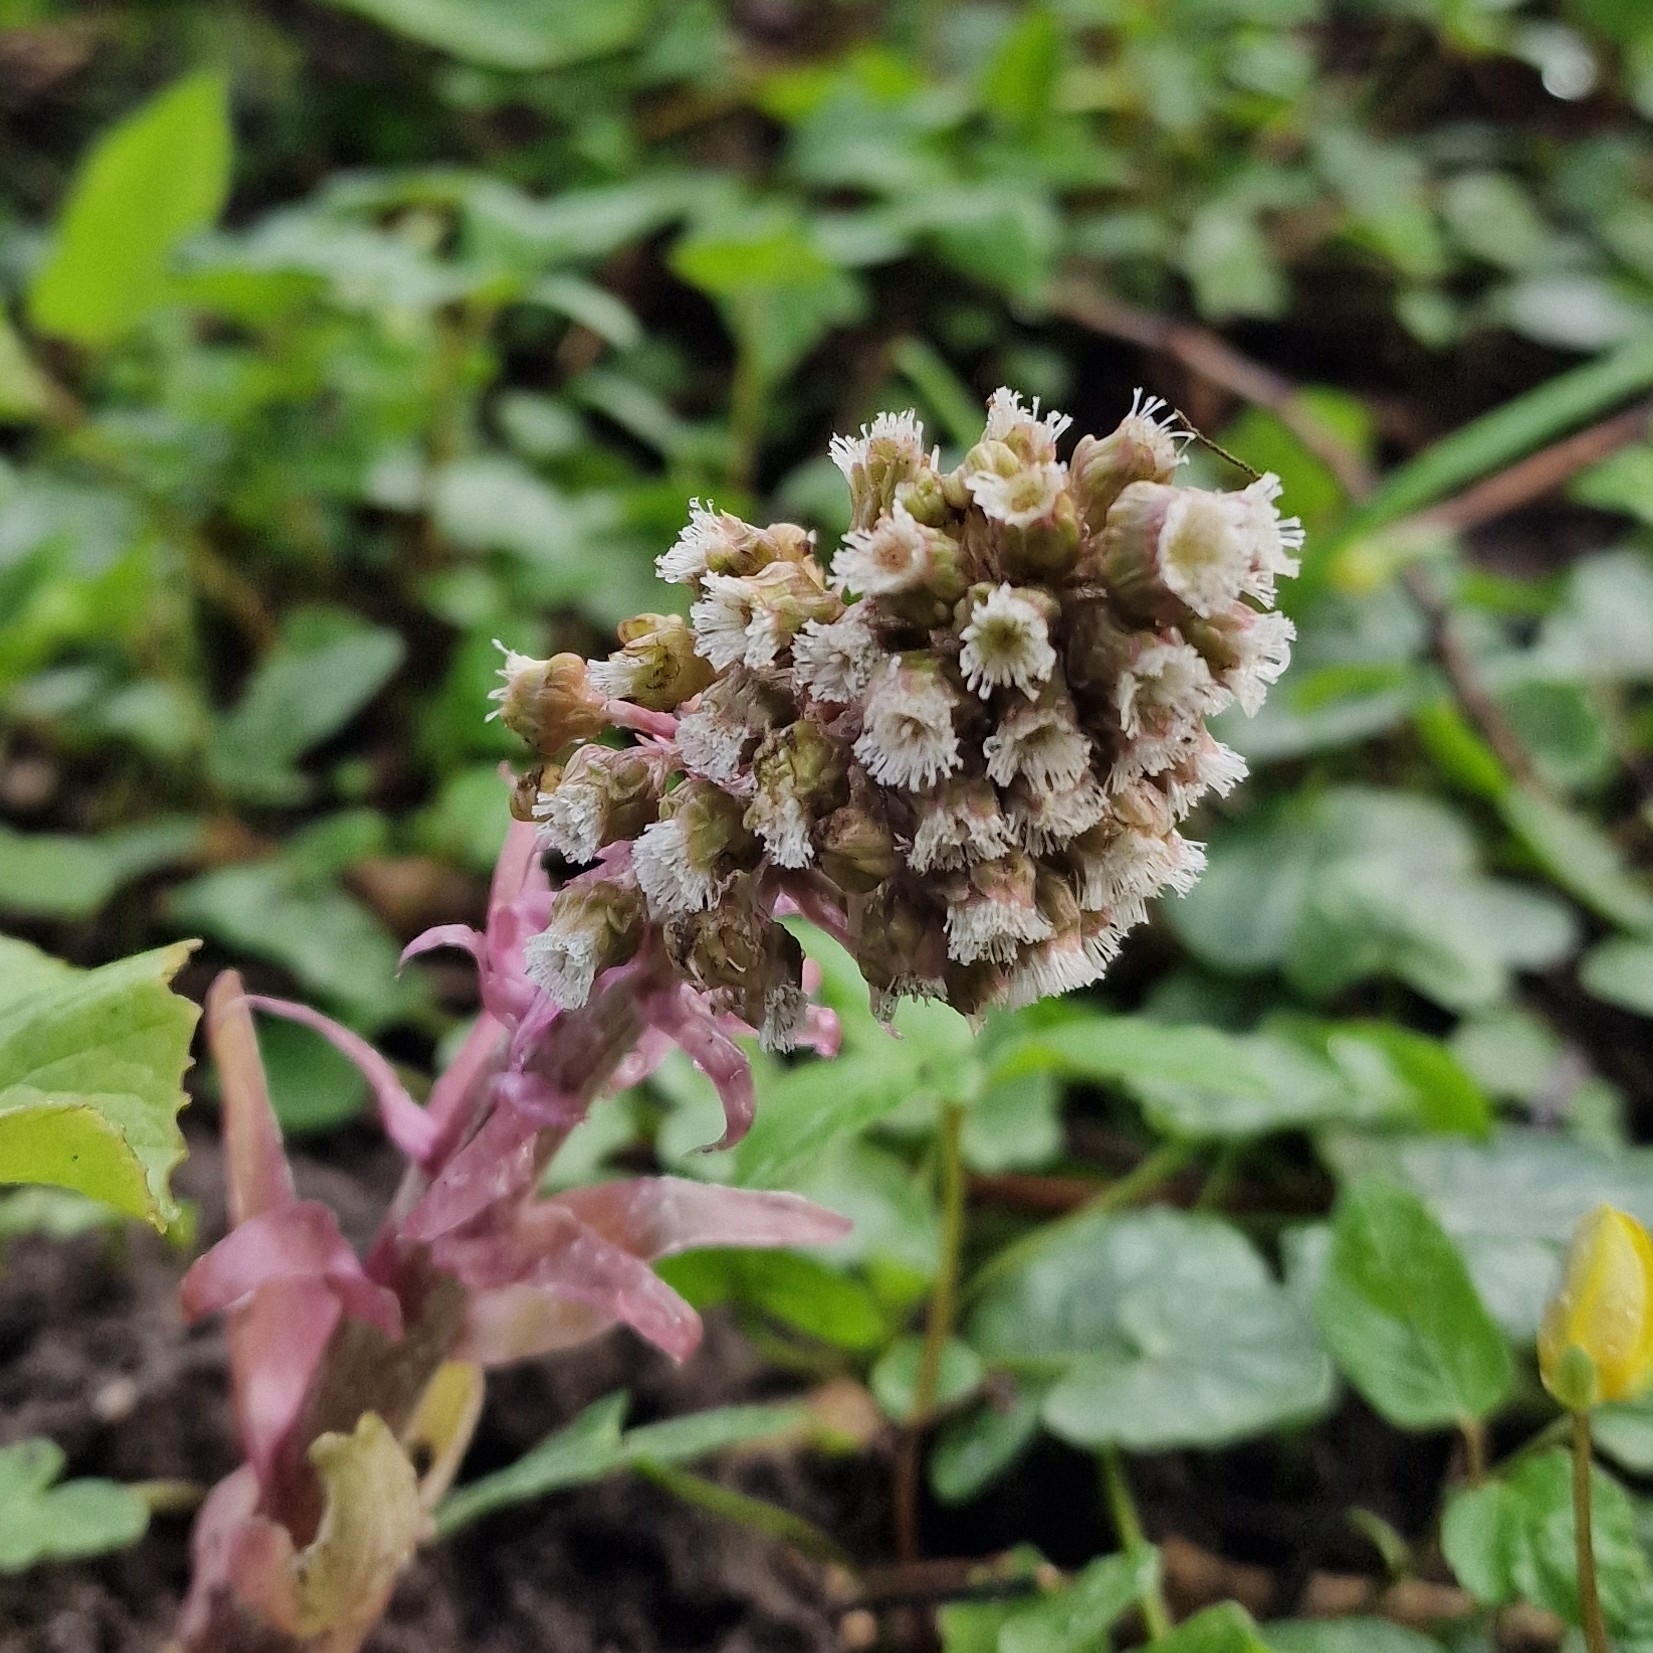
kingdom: Plantae
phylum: Tracheophyta
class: Magnoliopsida
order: Asterales
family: Asteraceae
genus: Petasites
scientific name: Petasites hybridus
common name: Butterbur
